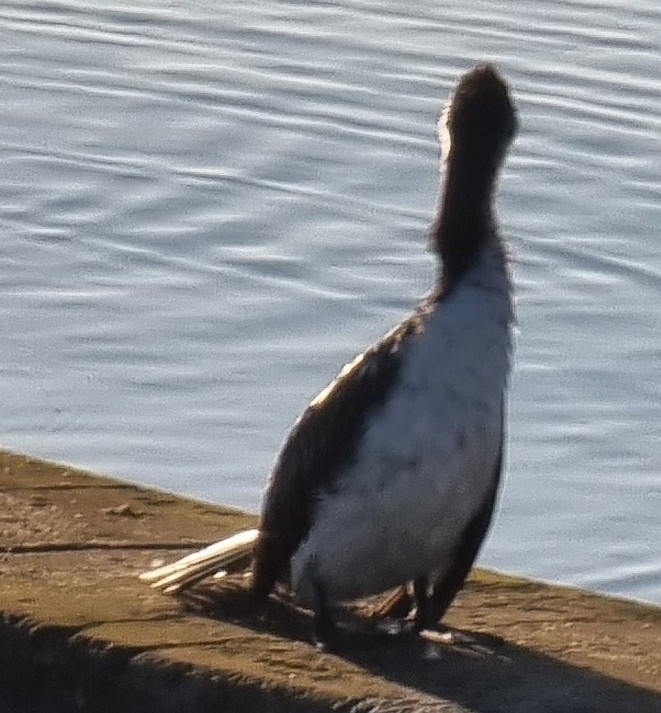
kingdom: Animalia
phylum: Chordata
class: Aves
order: Suliformes
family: Phalacrocoracidae
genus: Microcarbo
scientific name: Microcarbo melanoleucos
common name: Little pied cormorant
